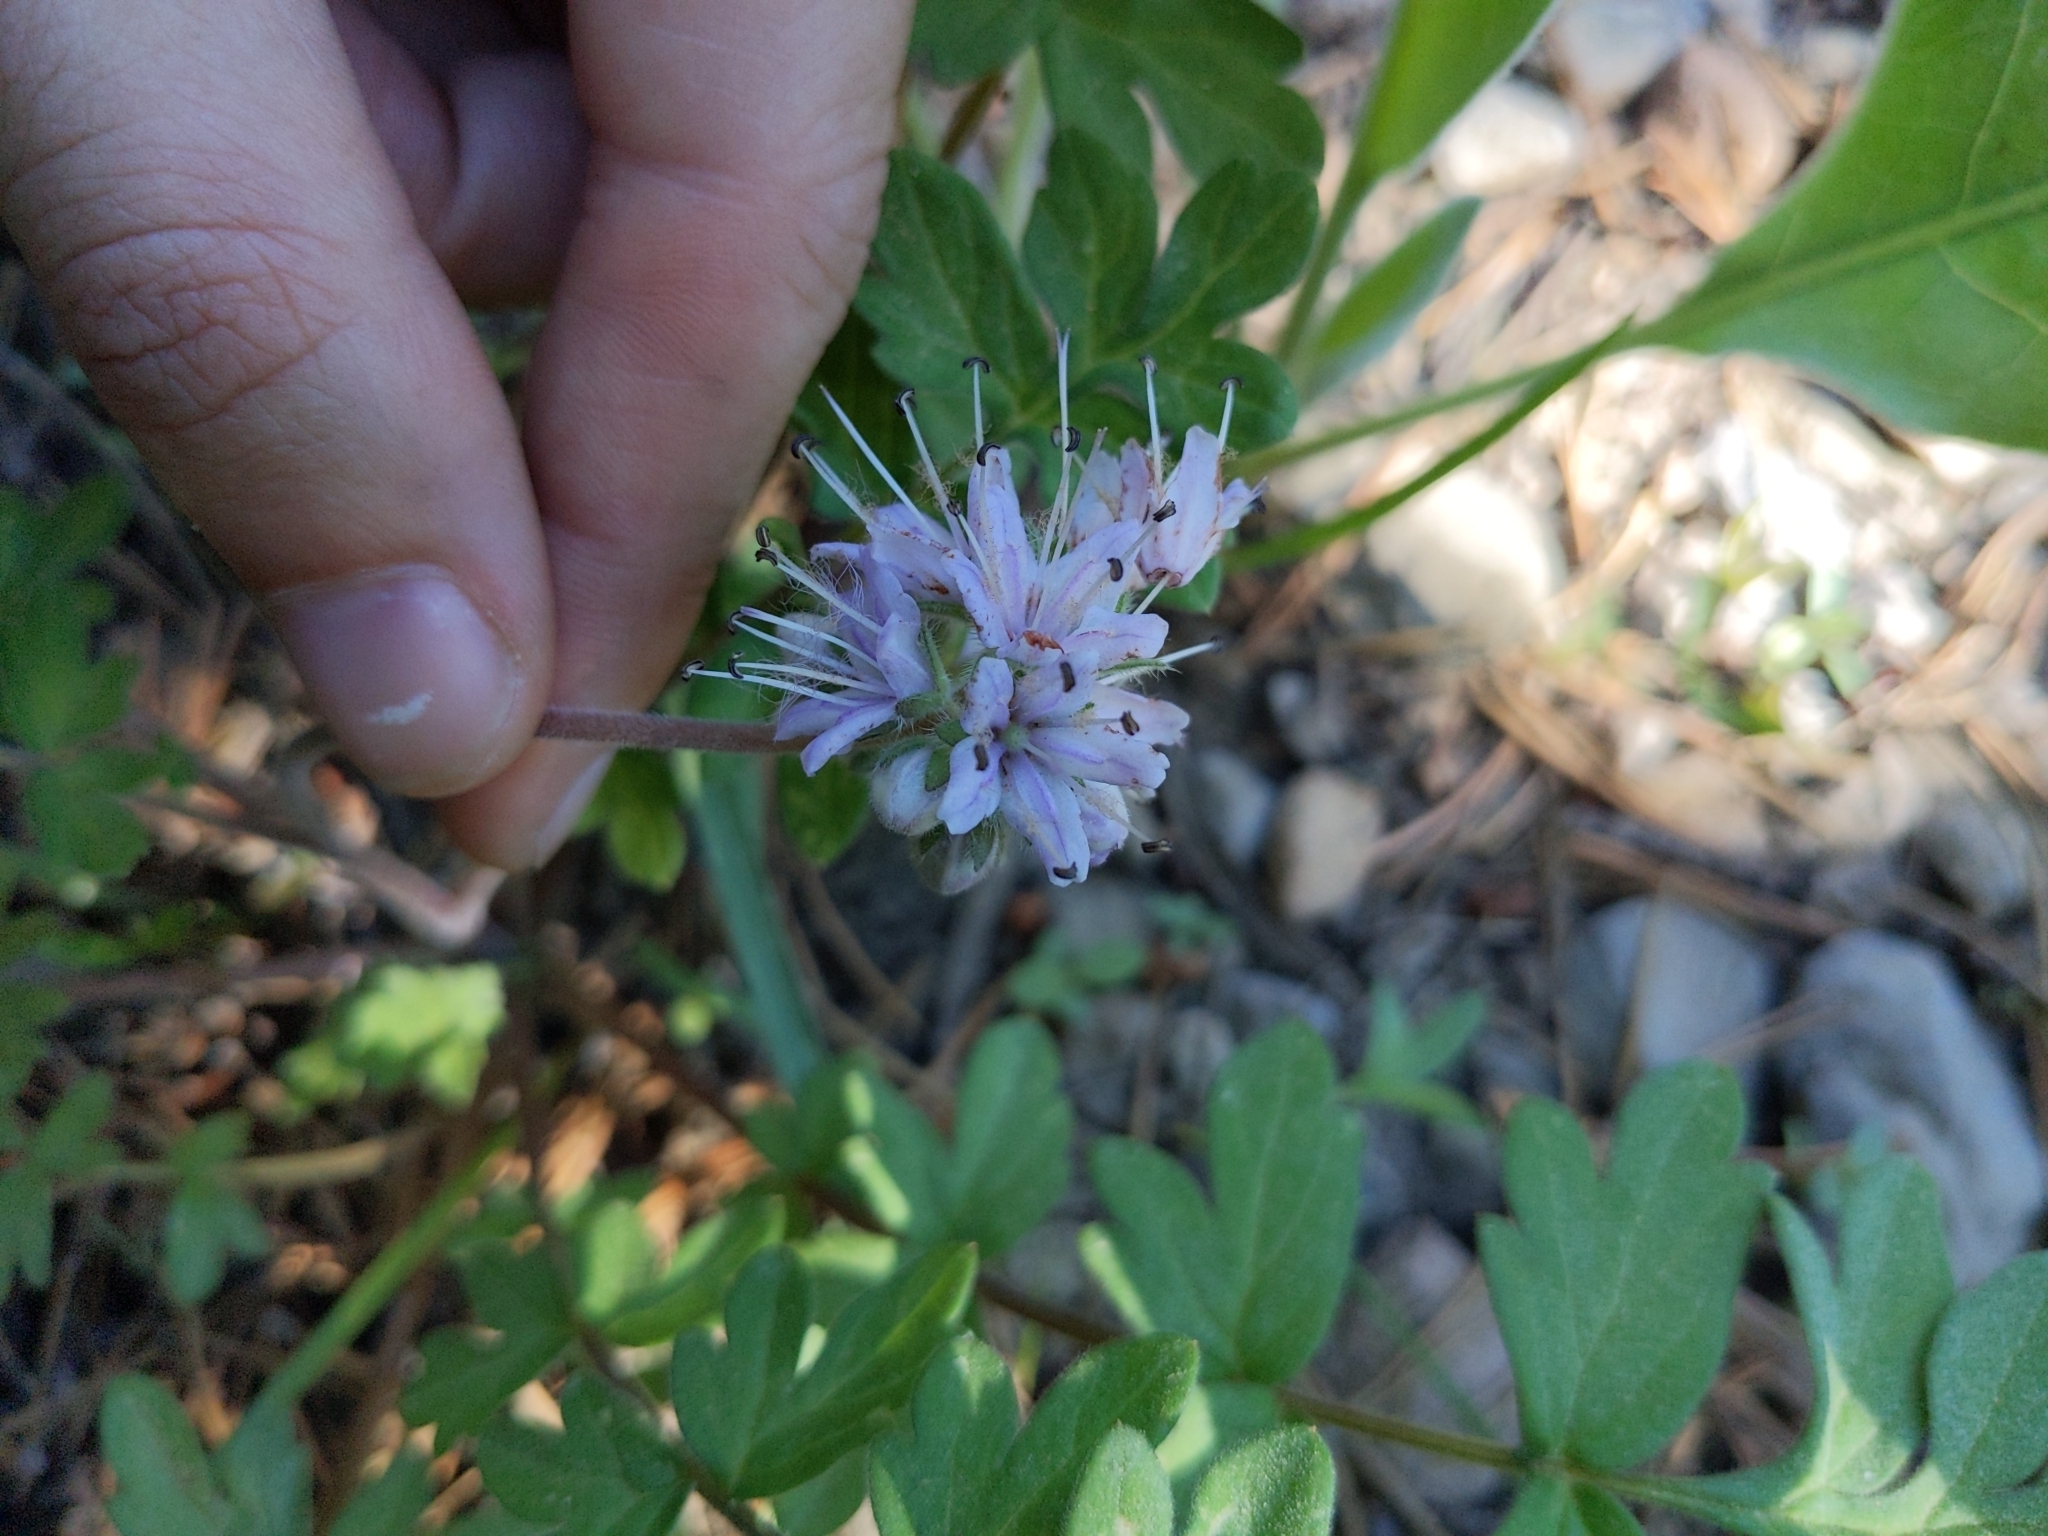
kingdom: Plantae
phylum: Tracheophyta
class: Magnoliopsida
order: Boraginales
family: Hydrophyllaceae
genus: Hydrophyllum
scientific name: Hydrophyllum occidentale
